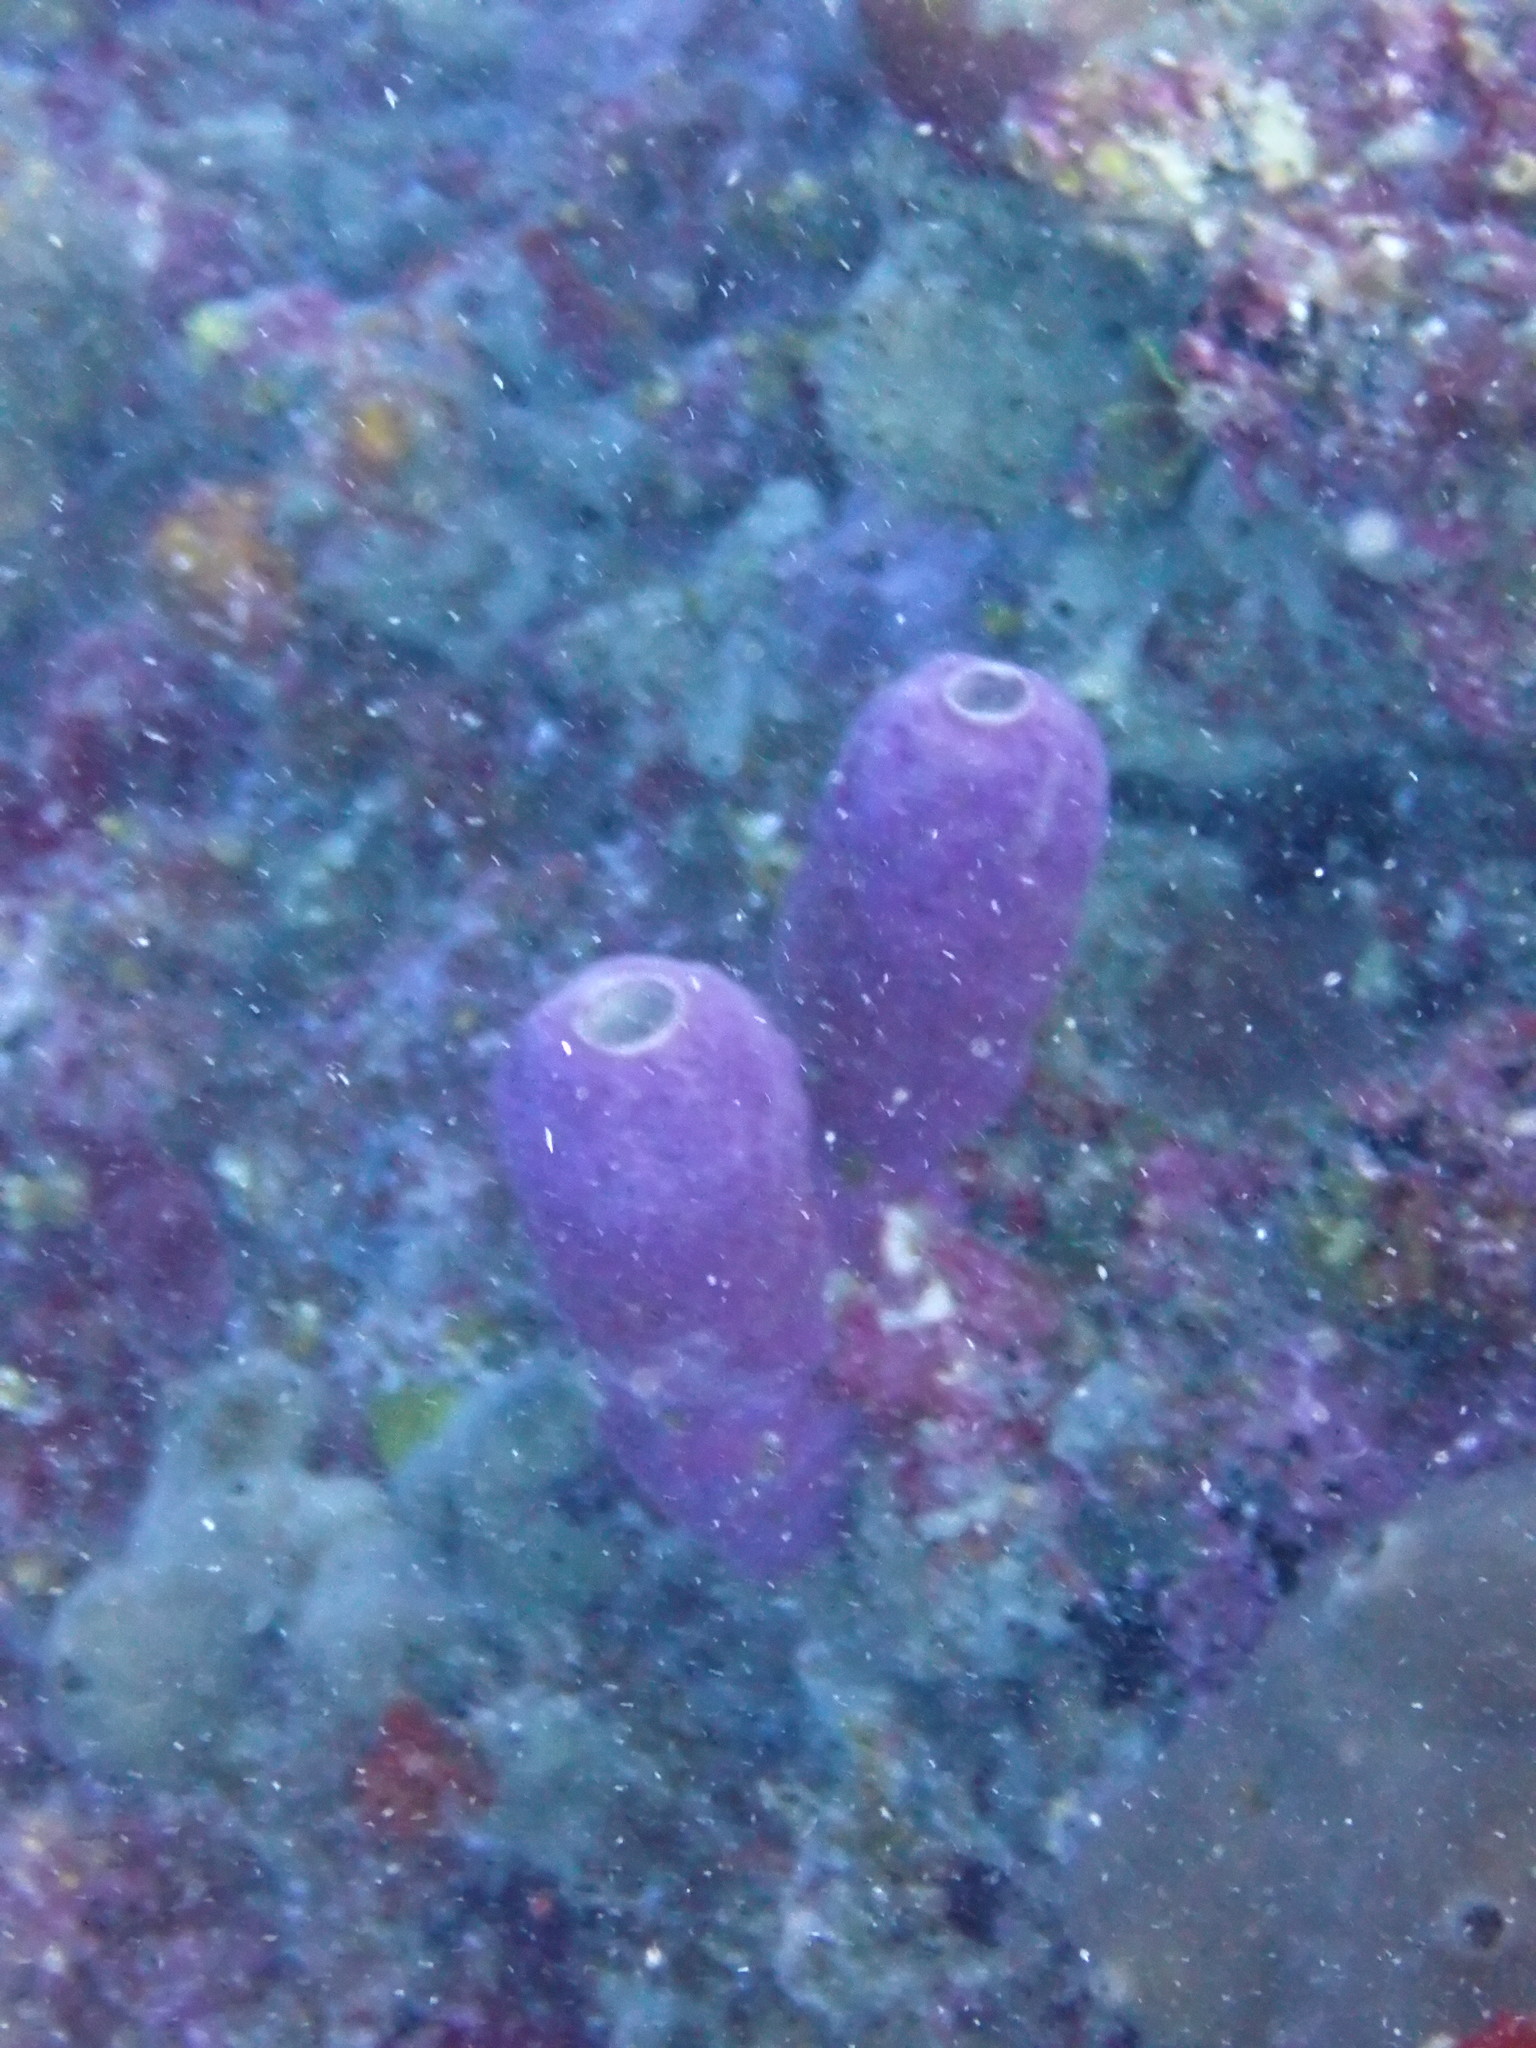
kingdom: Animalia
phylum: Porifera
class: Demospongiae
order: Verongiida
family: Aplysinidae
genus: Aplysina
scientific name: Aplysina archeri
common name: Stove-pipe sponge
